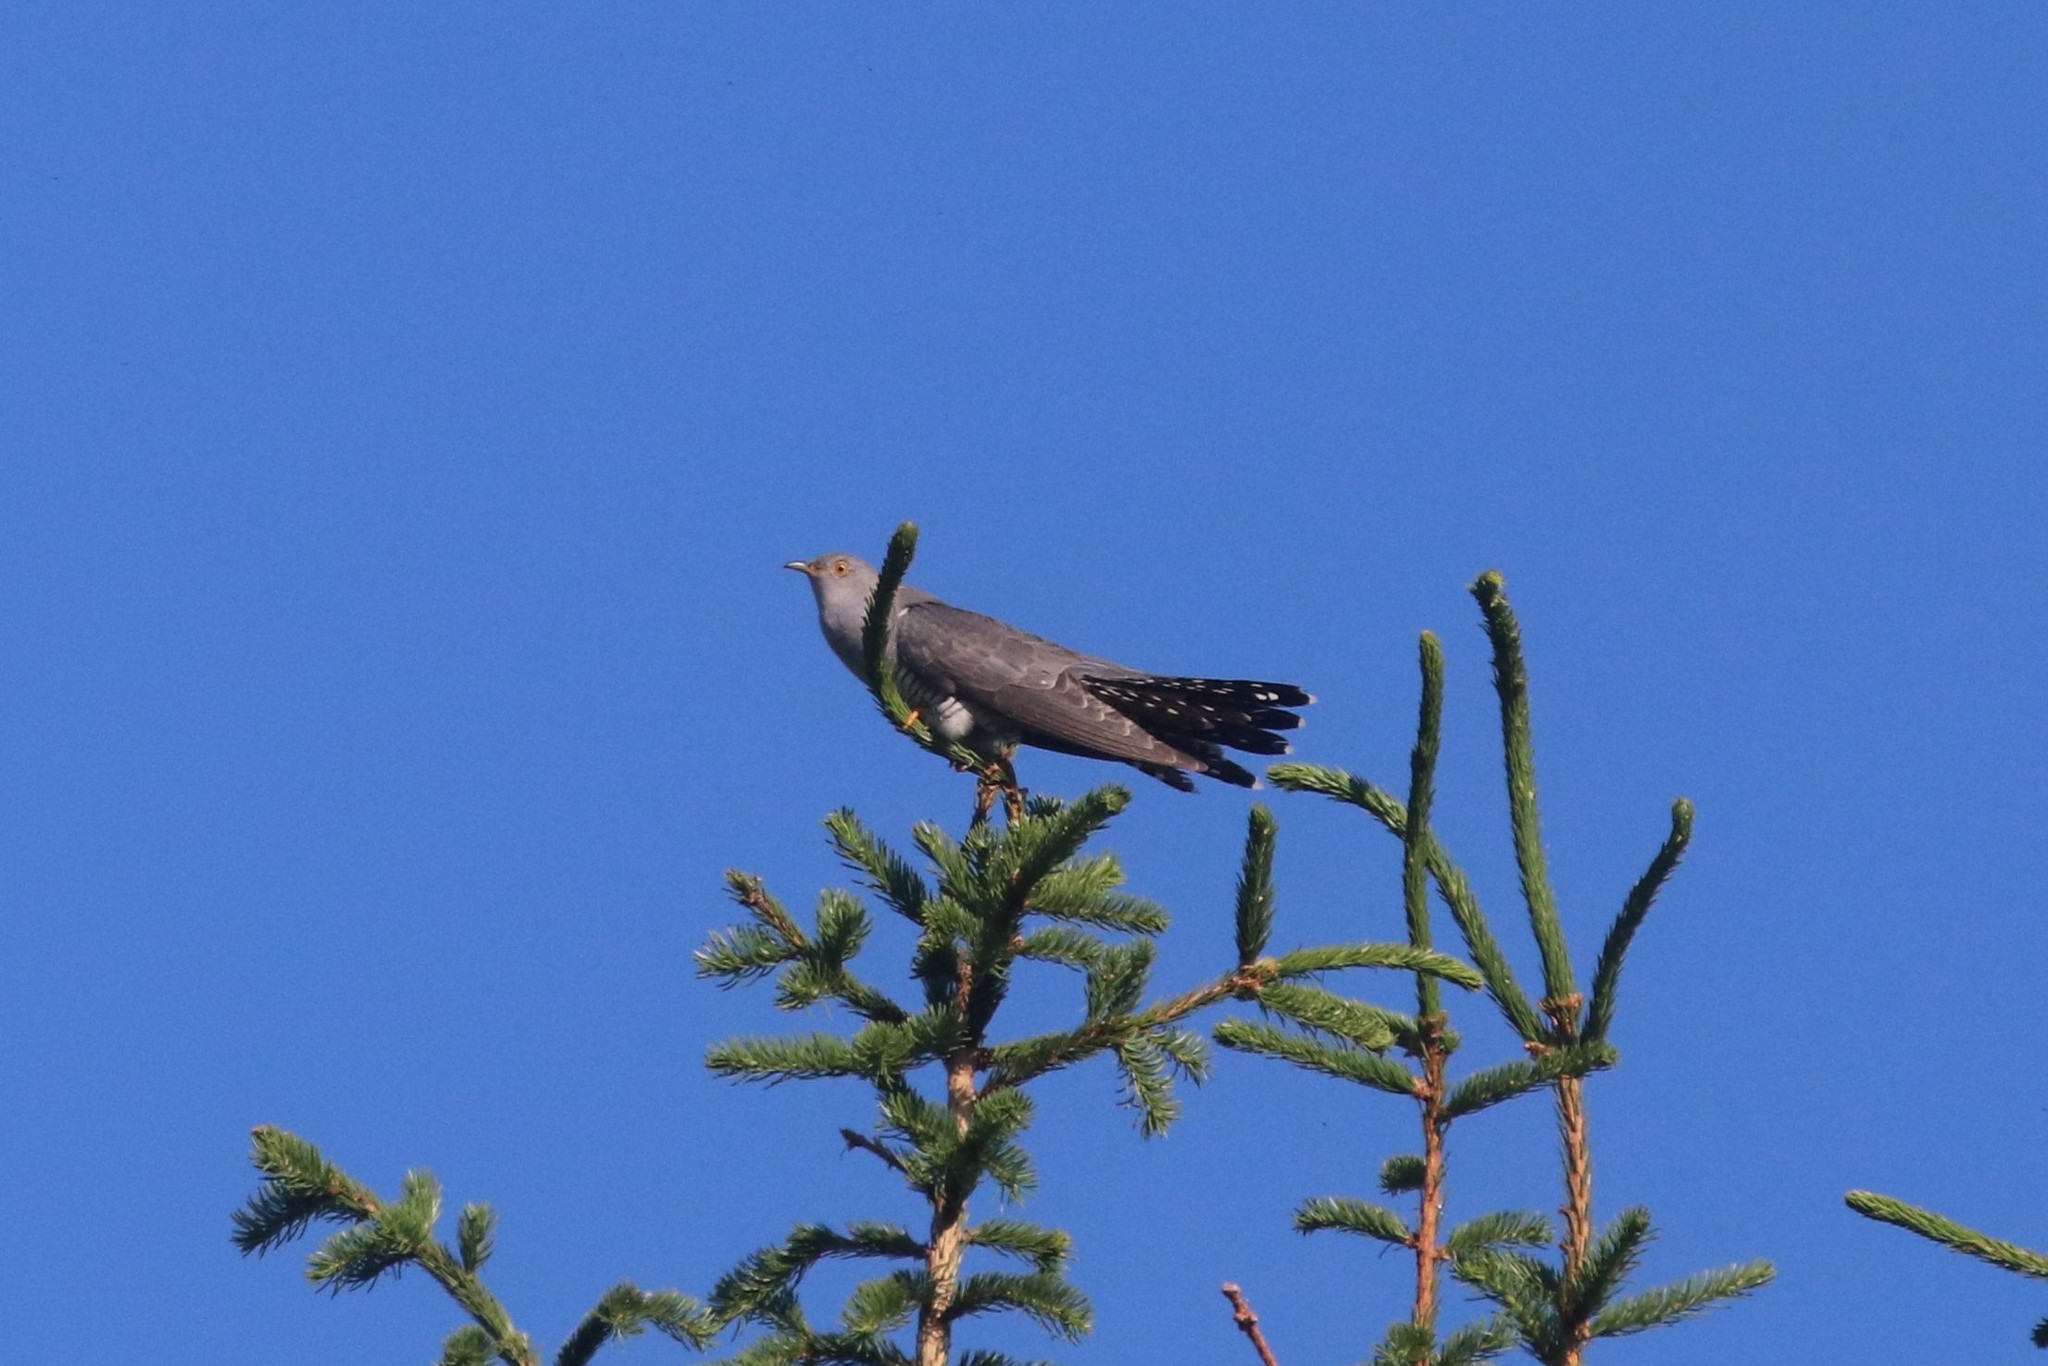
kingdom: Animalia
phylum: Chordata
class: Aves
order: Cuculiformes
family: Cuculidae
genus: Cuculus
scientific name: Cuculus canorus
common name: Common cuckoo
